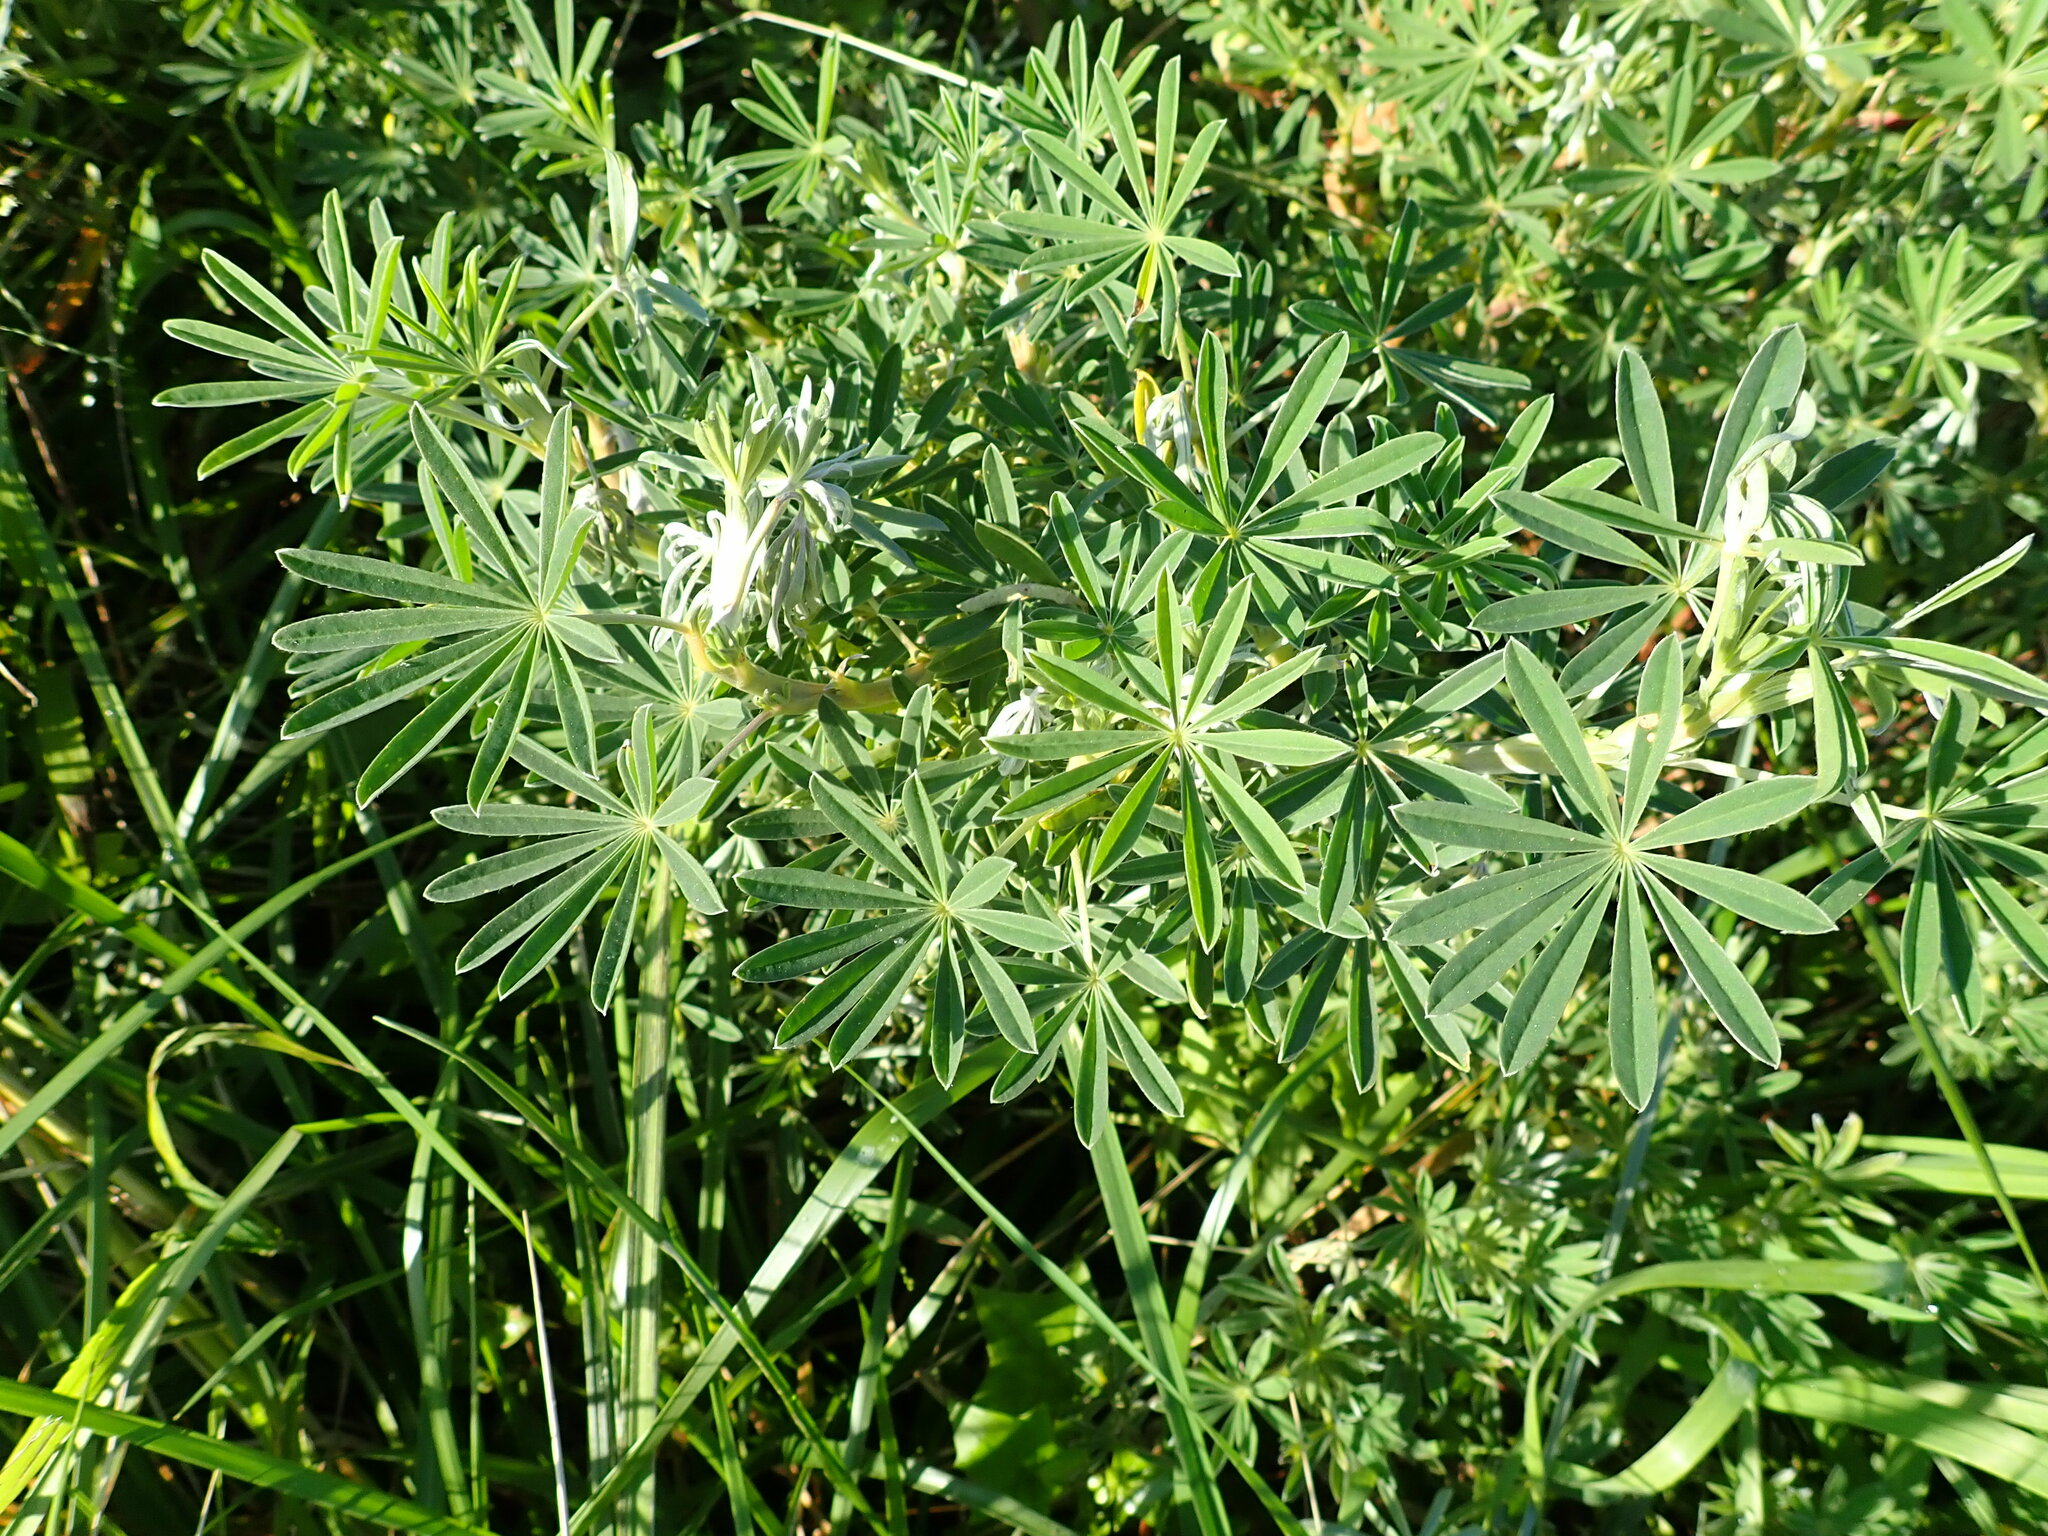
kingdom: Plantae
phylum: Tracheophyta
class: Magnoliopsida
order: Fabales
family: Fabaceae
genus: Lupinus
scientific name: Lupinus arboreus
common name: Yellow bush lupine
